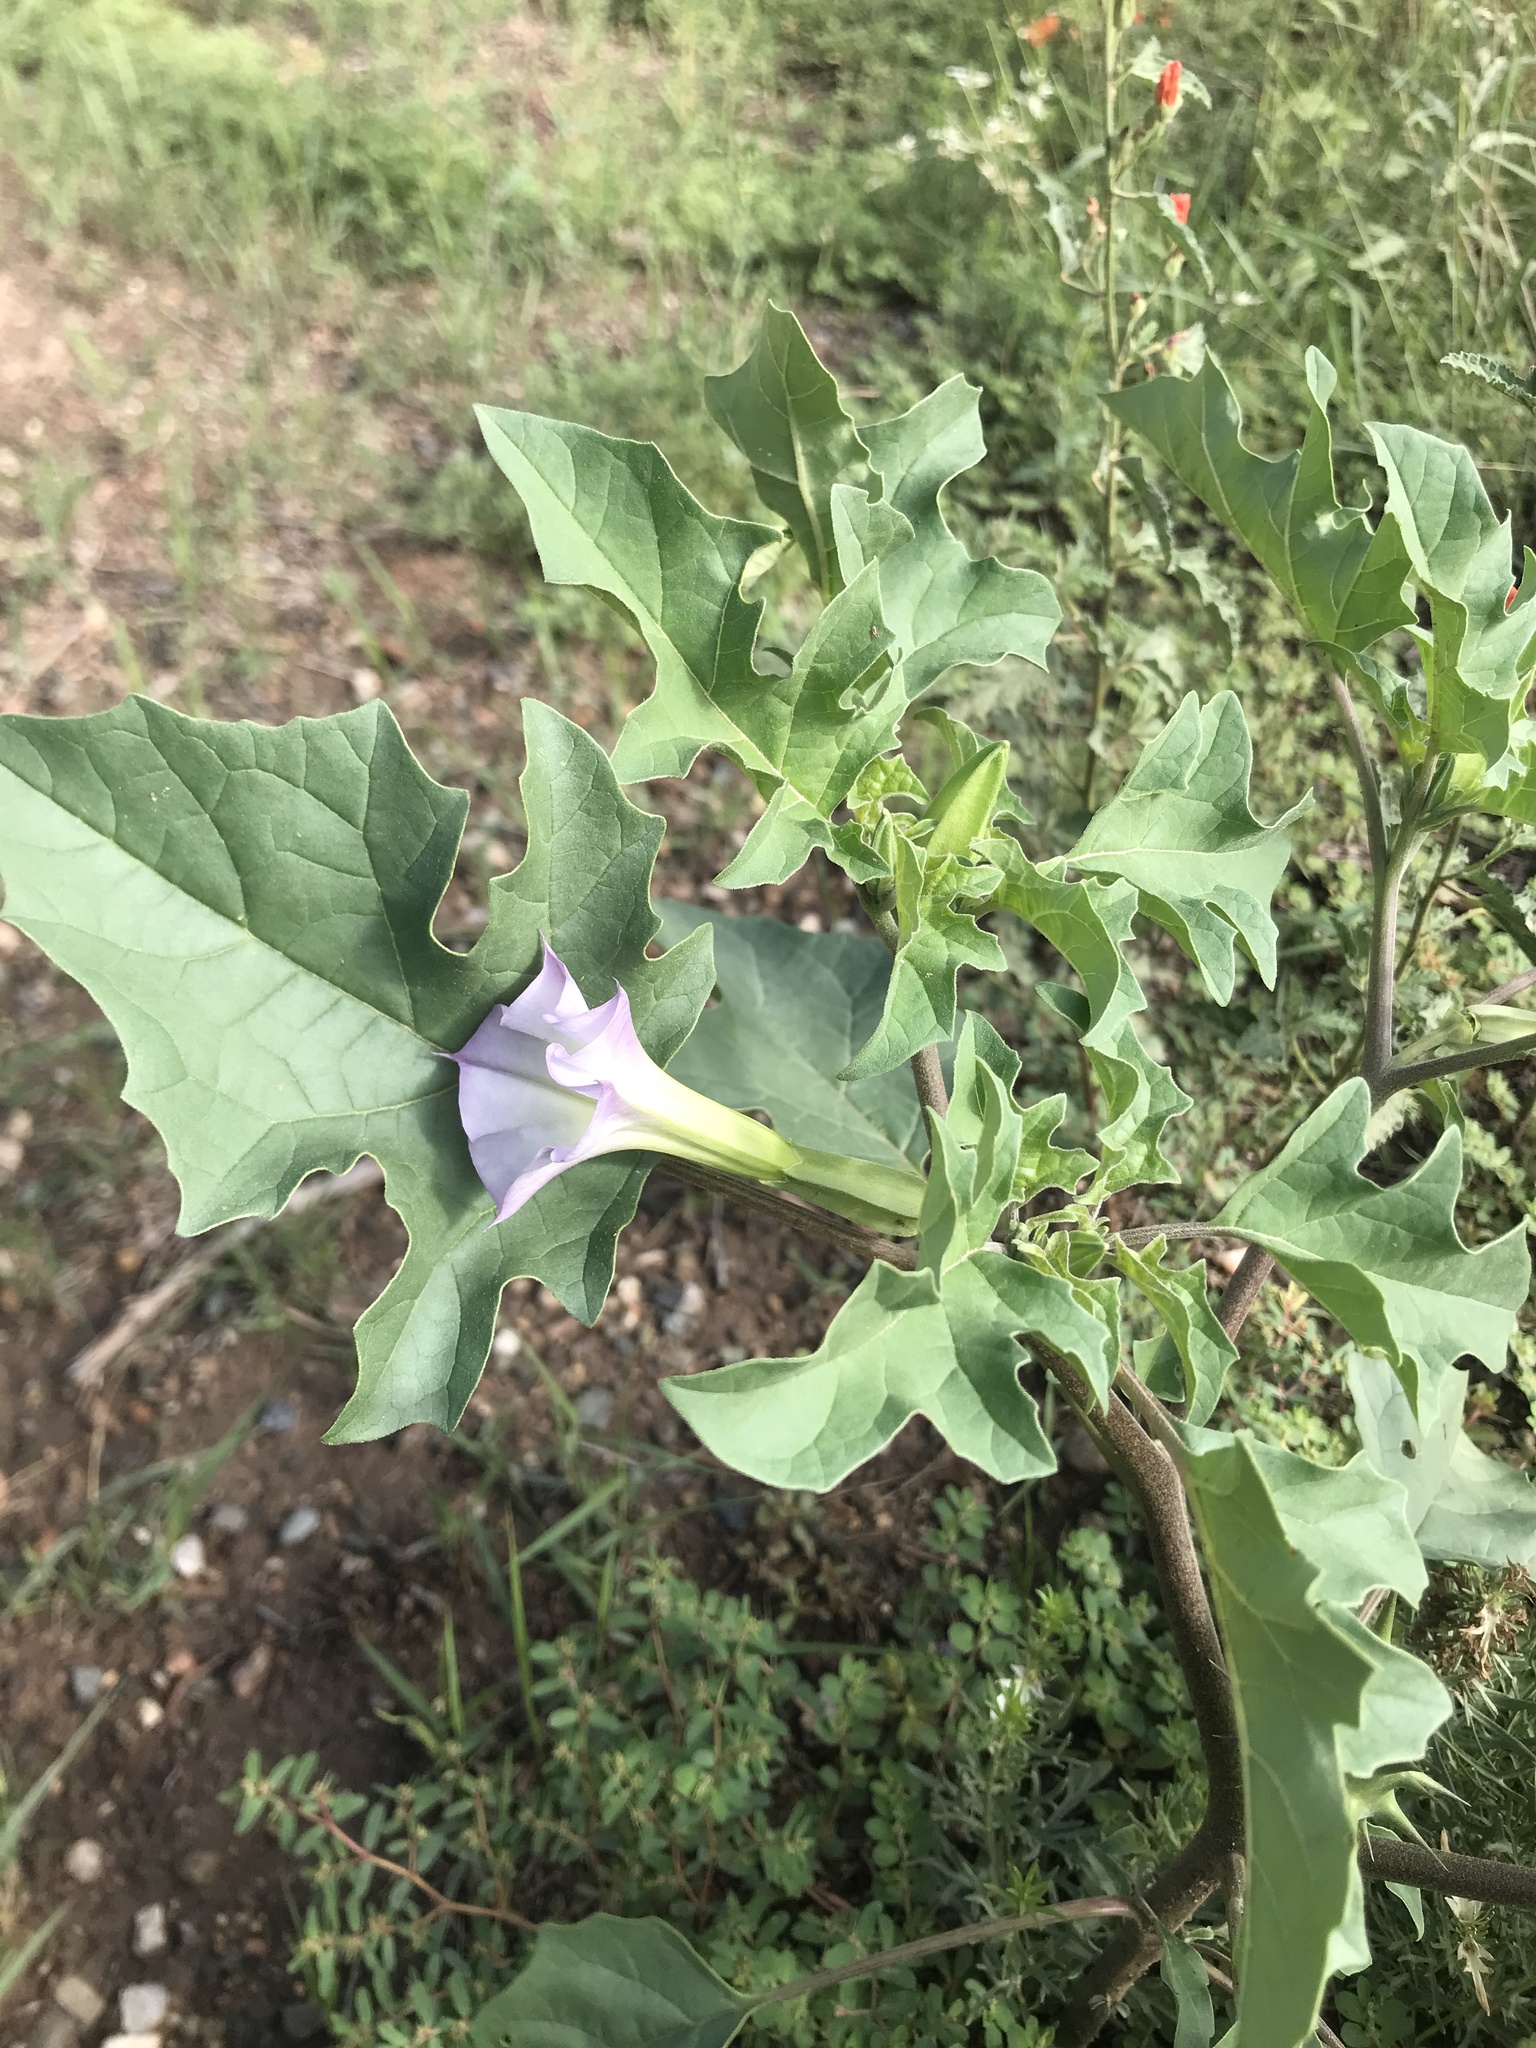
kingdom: Plantae
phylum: Tracheophyta
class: Magnoliopsida
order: Solanales
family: Solanaceae
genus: Datura
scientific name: Datura quercifolia
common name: Oak-leaf datura
